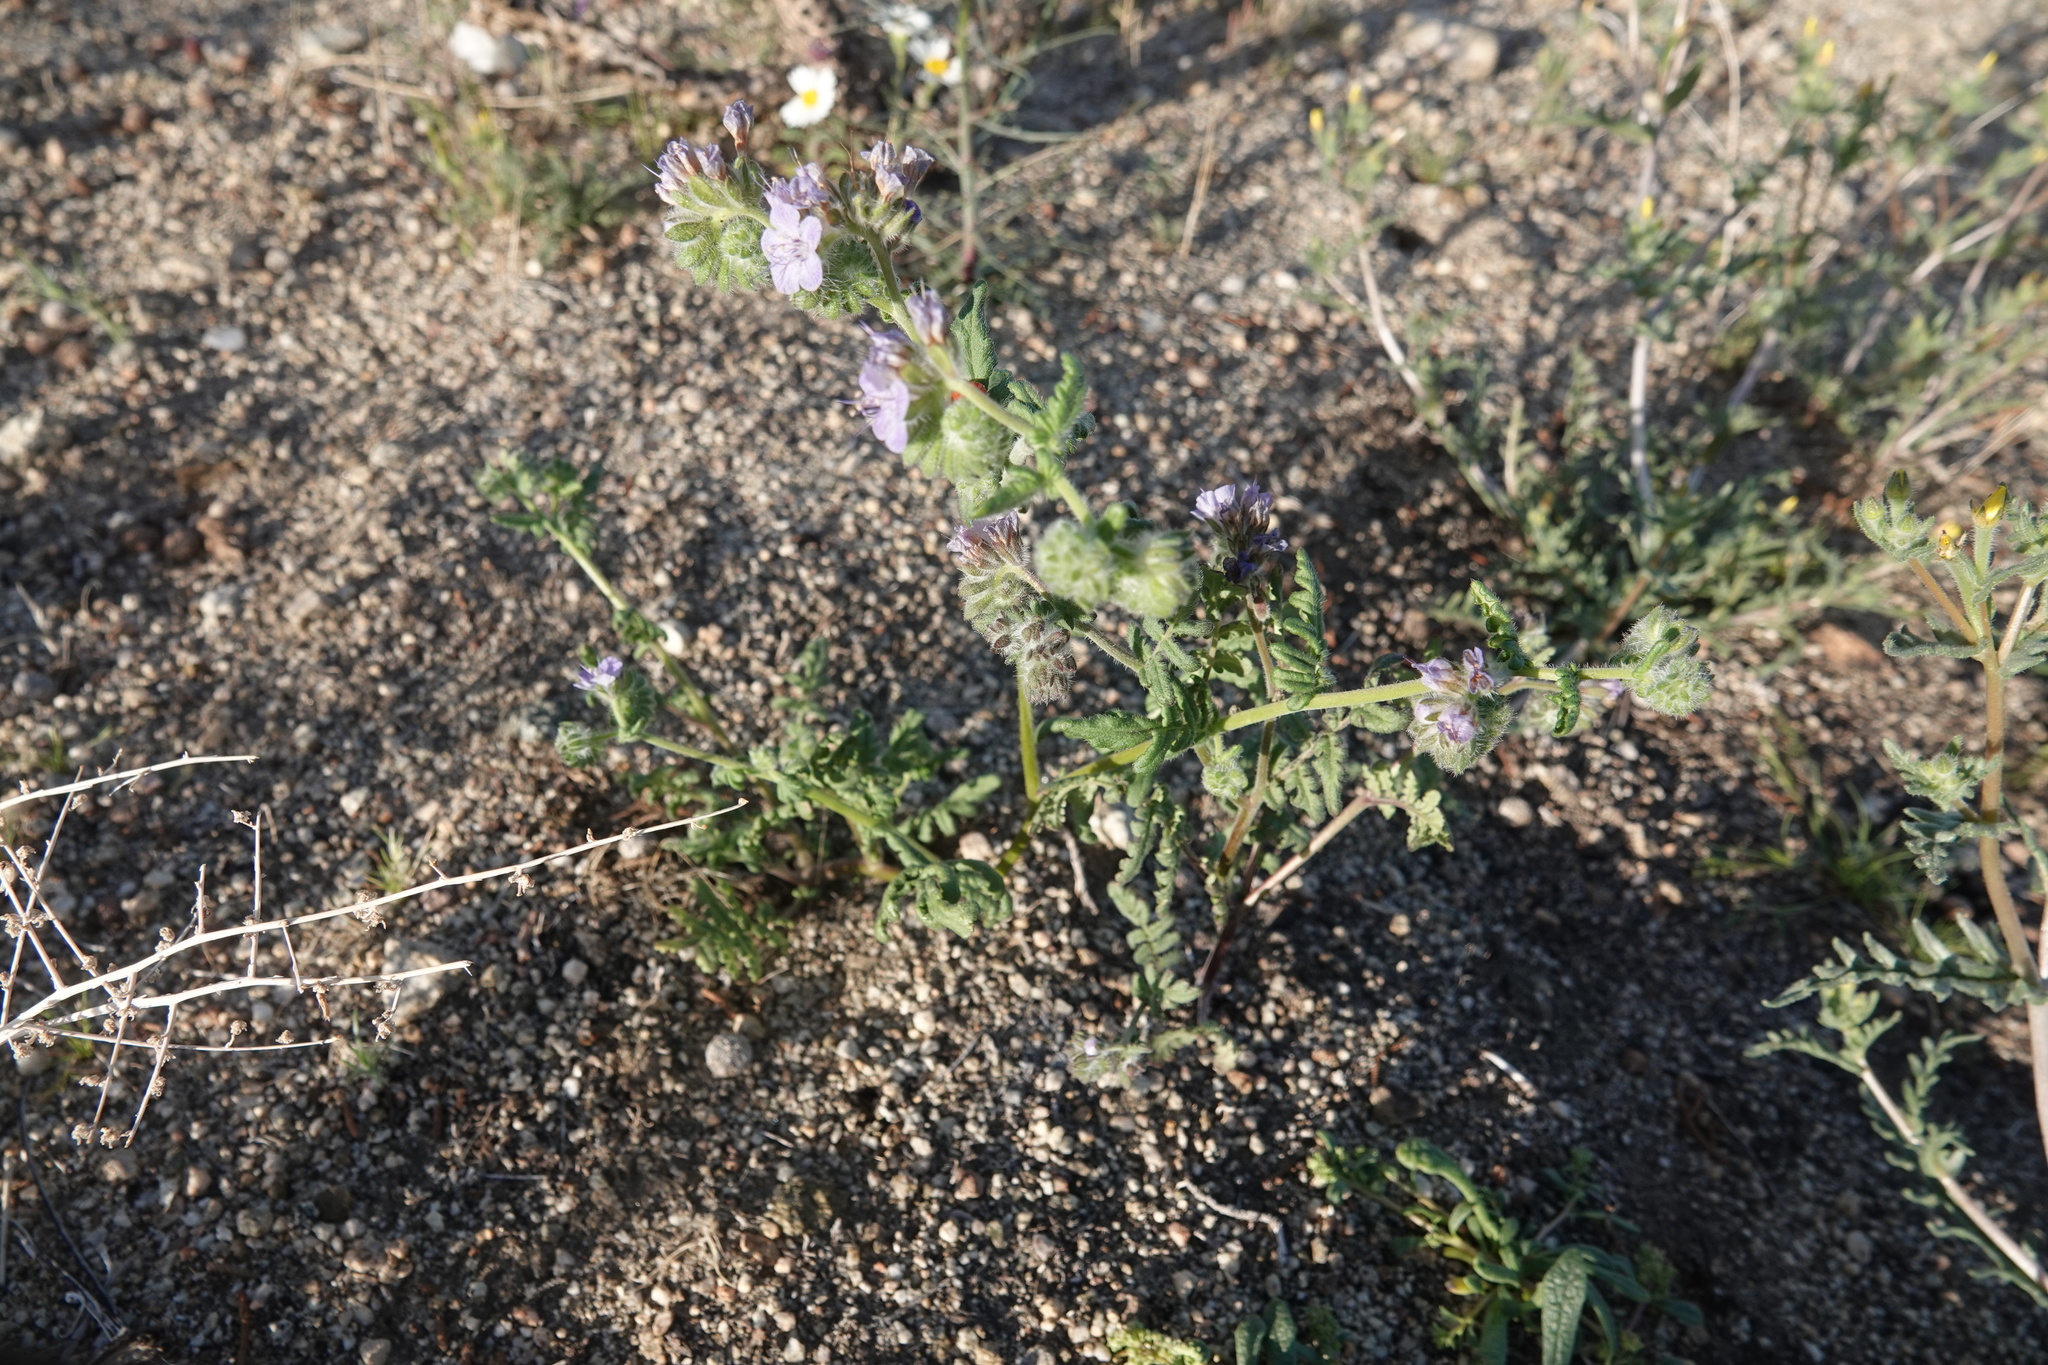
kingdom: Plantae
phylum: Tracheophyta
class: Magnoliopsida
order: Boraginales
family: Hydrophyllaceae
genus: Phacelia
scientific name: Phacelia distans
